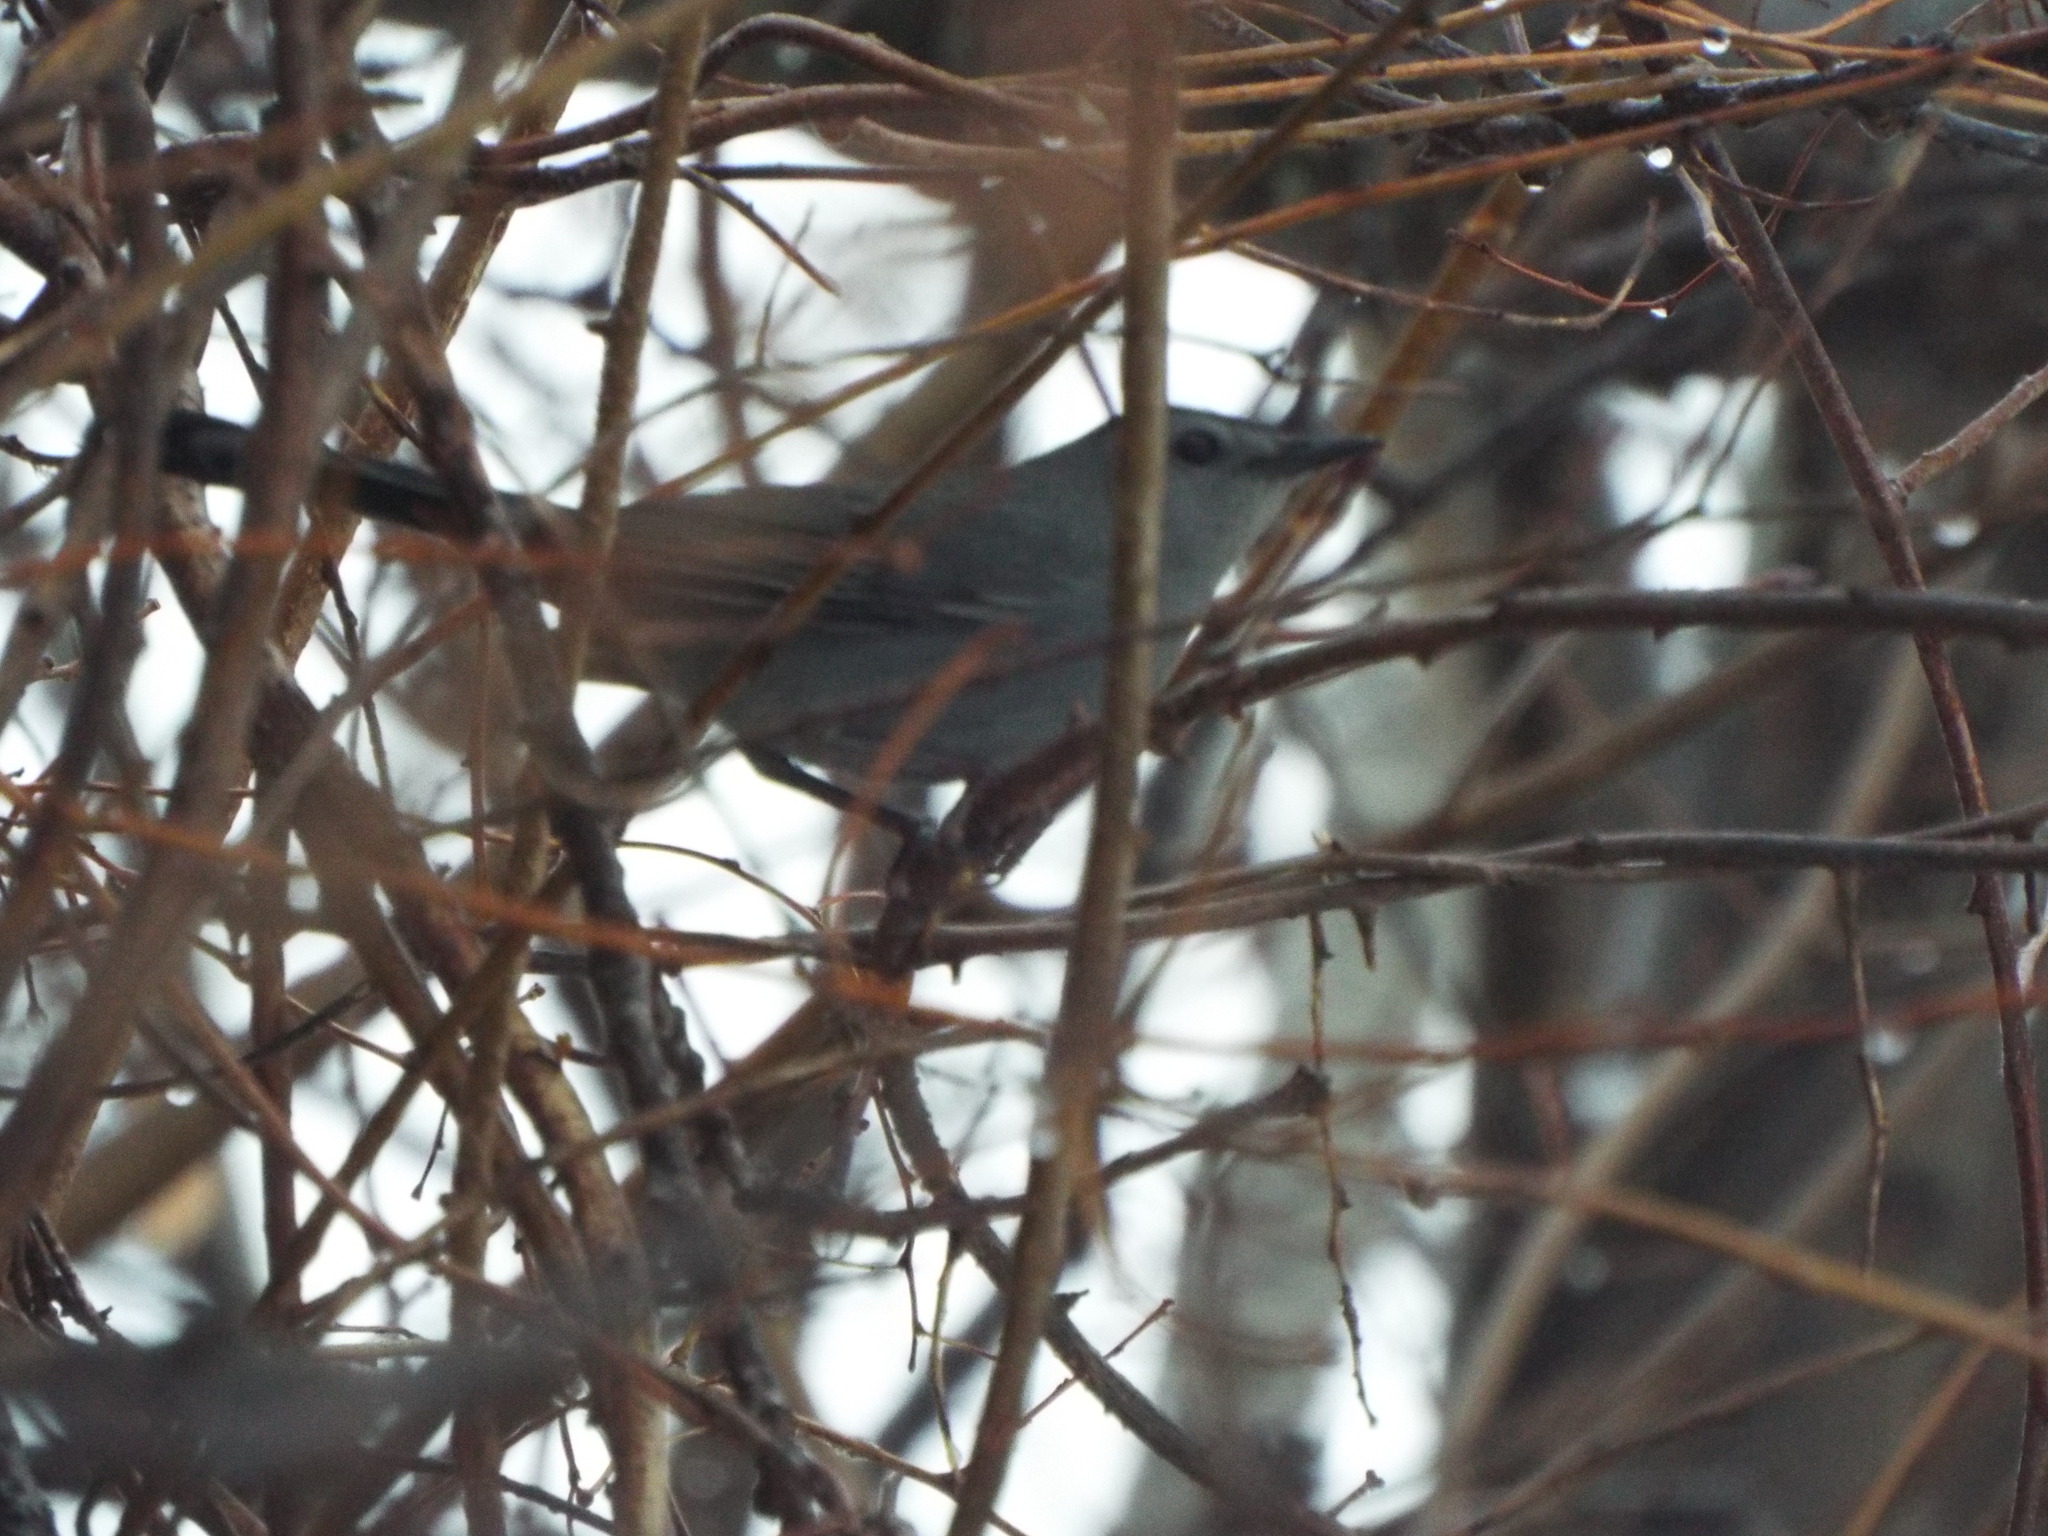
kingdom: Animalia
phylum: Chordata
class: Aves
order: Passeriformes
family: Mimidae
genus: Dumetella
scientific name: Dumetella carolinensis
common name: Gray catbird
